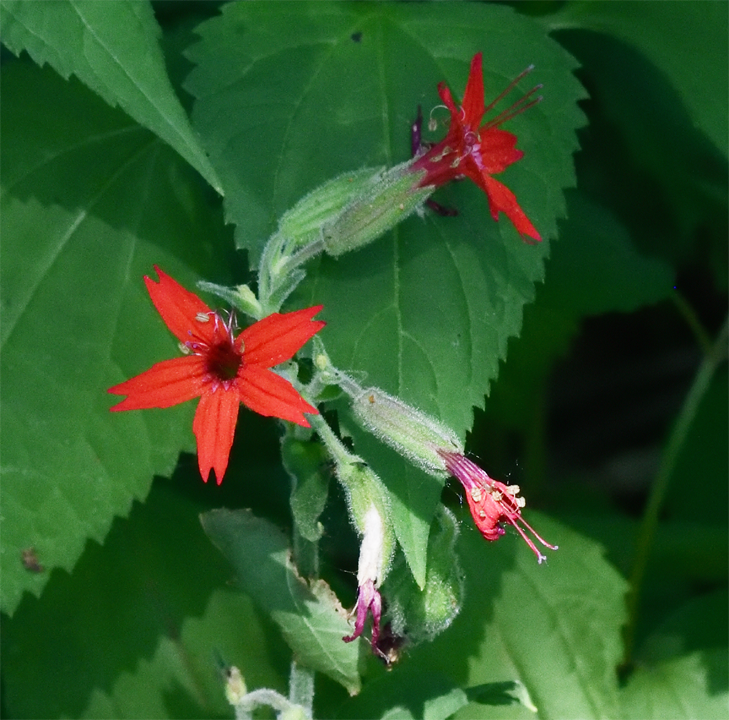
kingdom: Plantae
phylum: Tracheophyta
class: Magnoliopsida
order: Caryophyllales
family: Caryophyllaceae
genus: Silene
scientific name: Silene virginica
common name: Fire-pink
